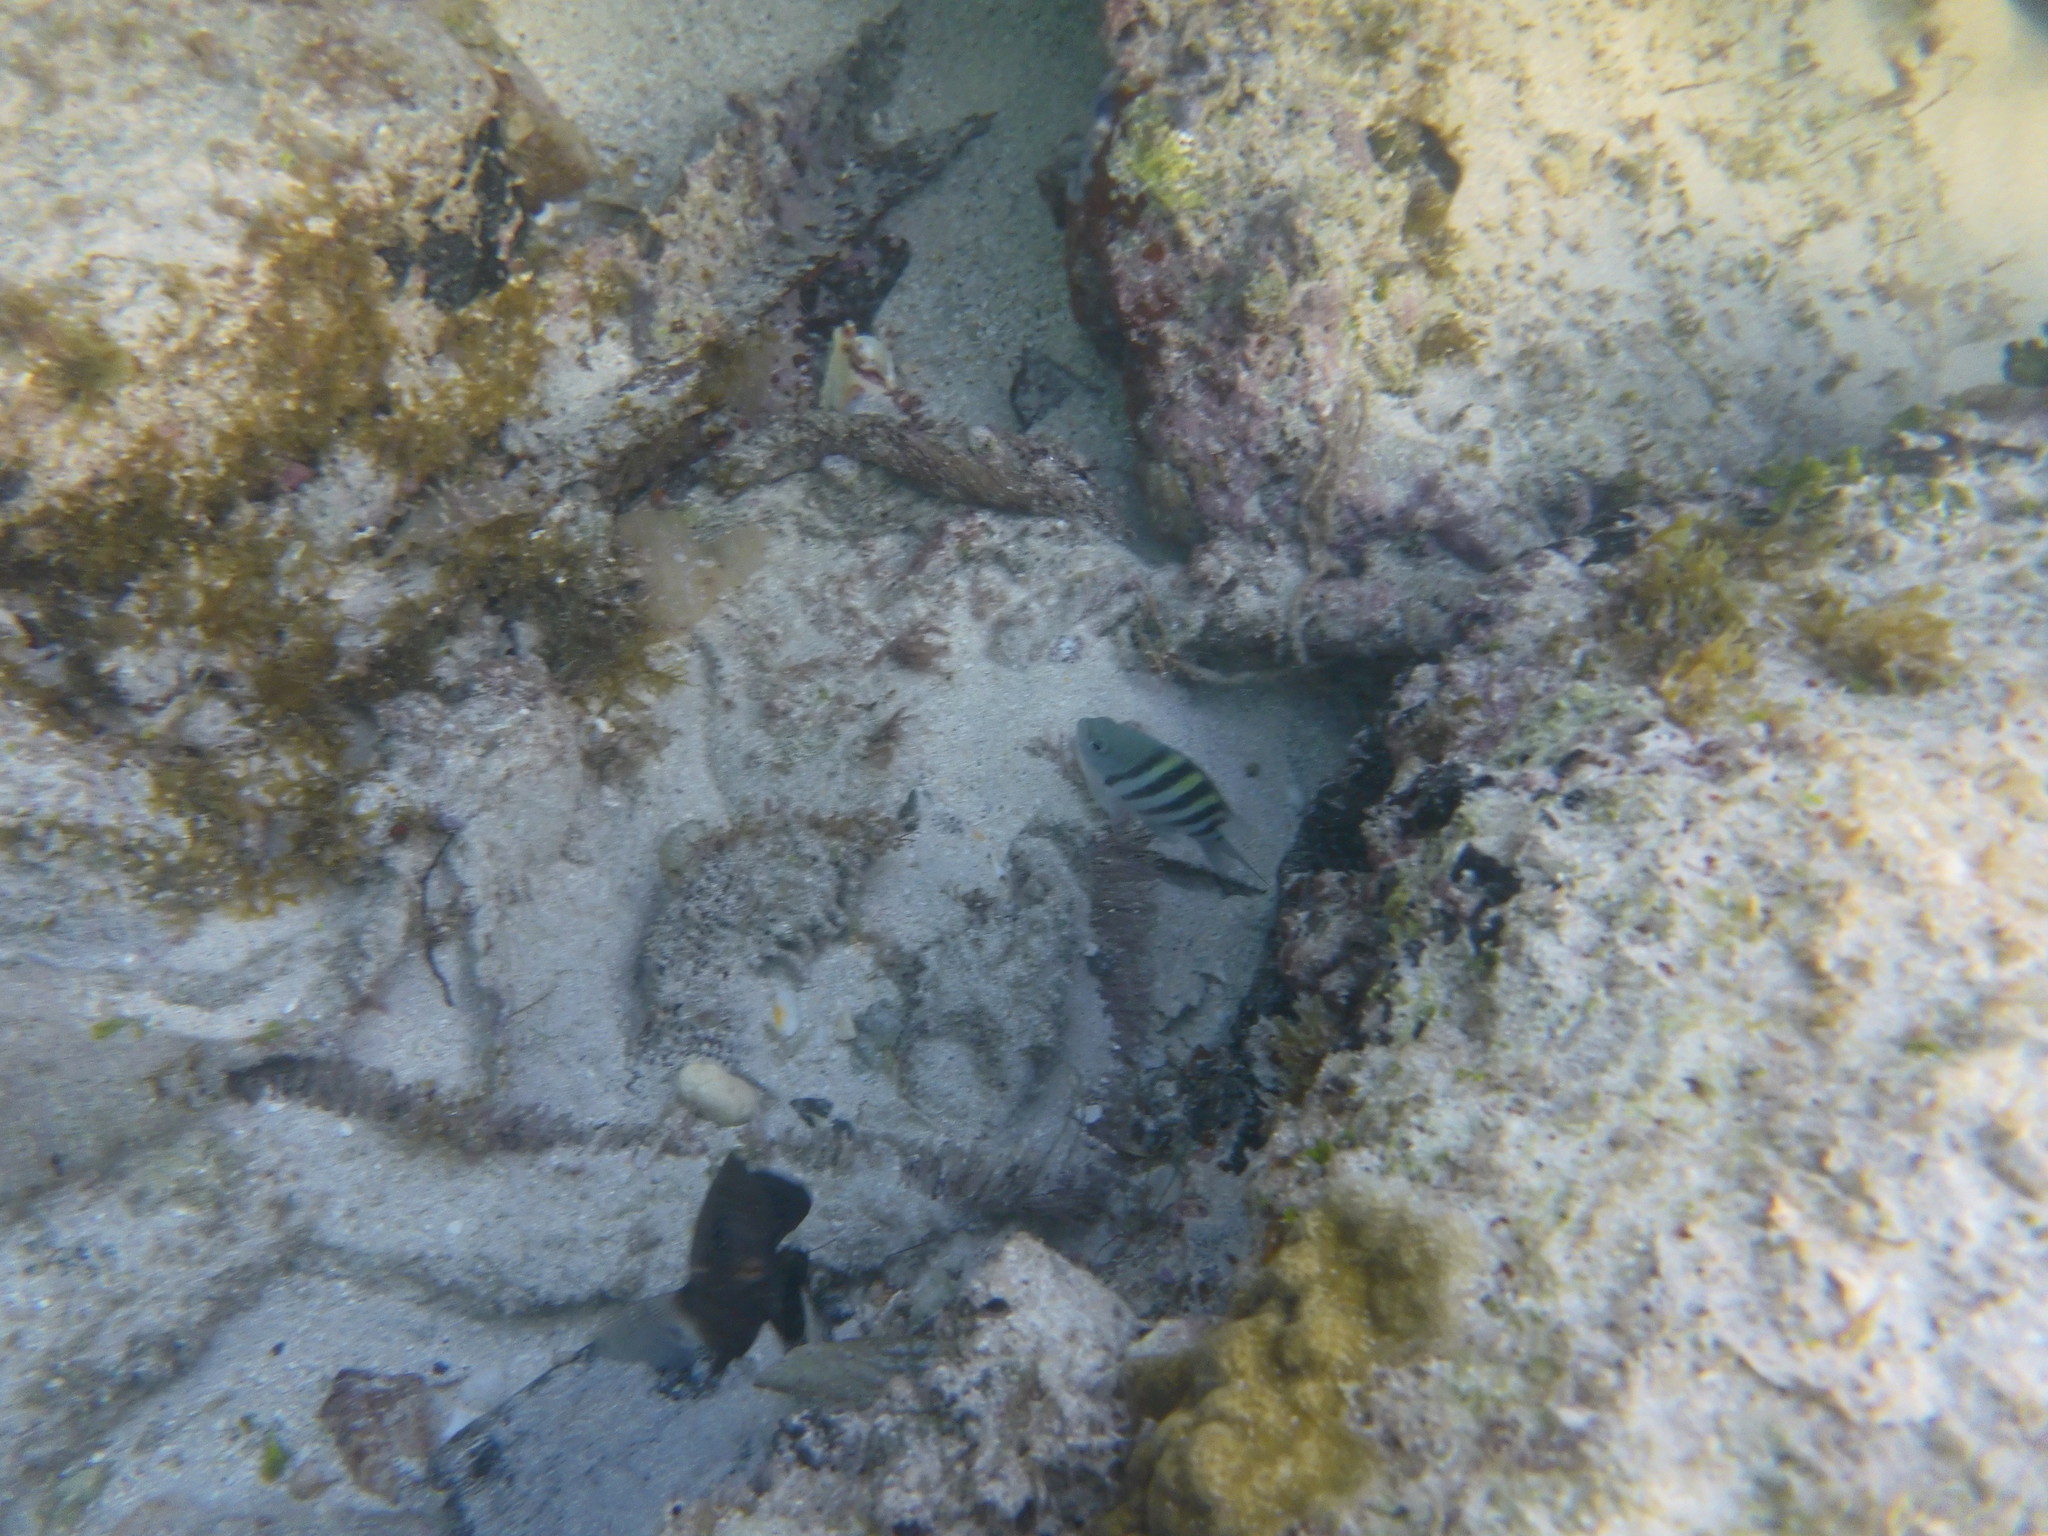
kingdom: Animalia
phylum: Chordata
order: Perciformes
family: Pomacentridae
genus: Abudefduf
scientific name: Abudefduf saxatilis
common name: Sergeant major
